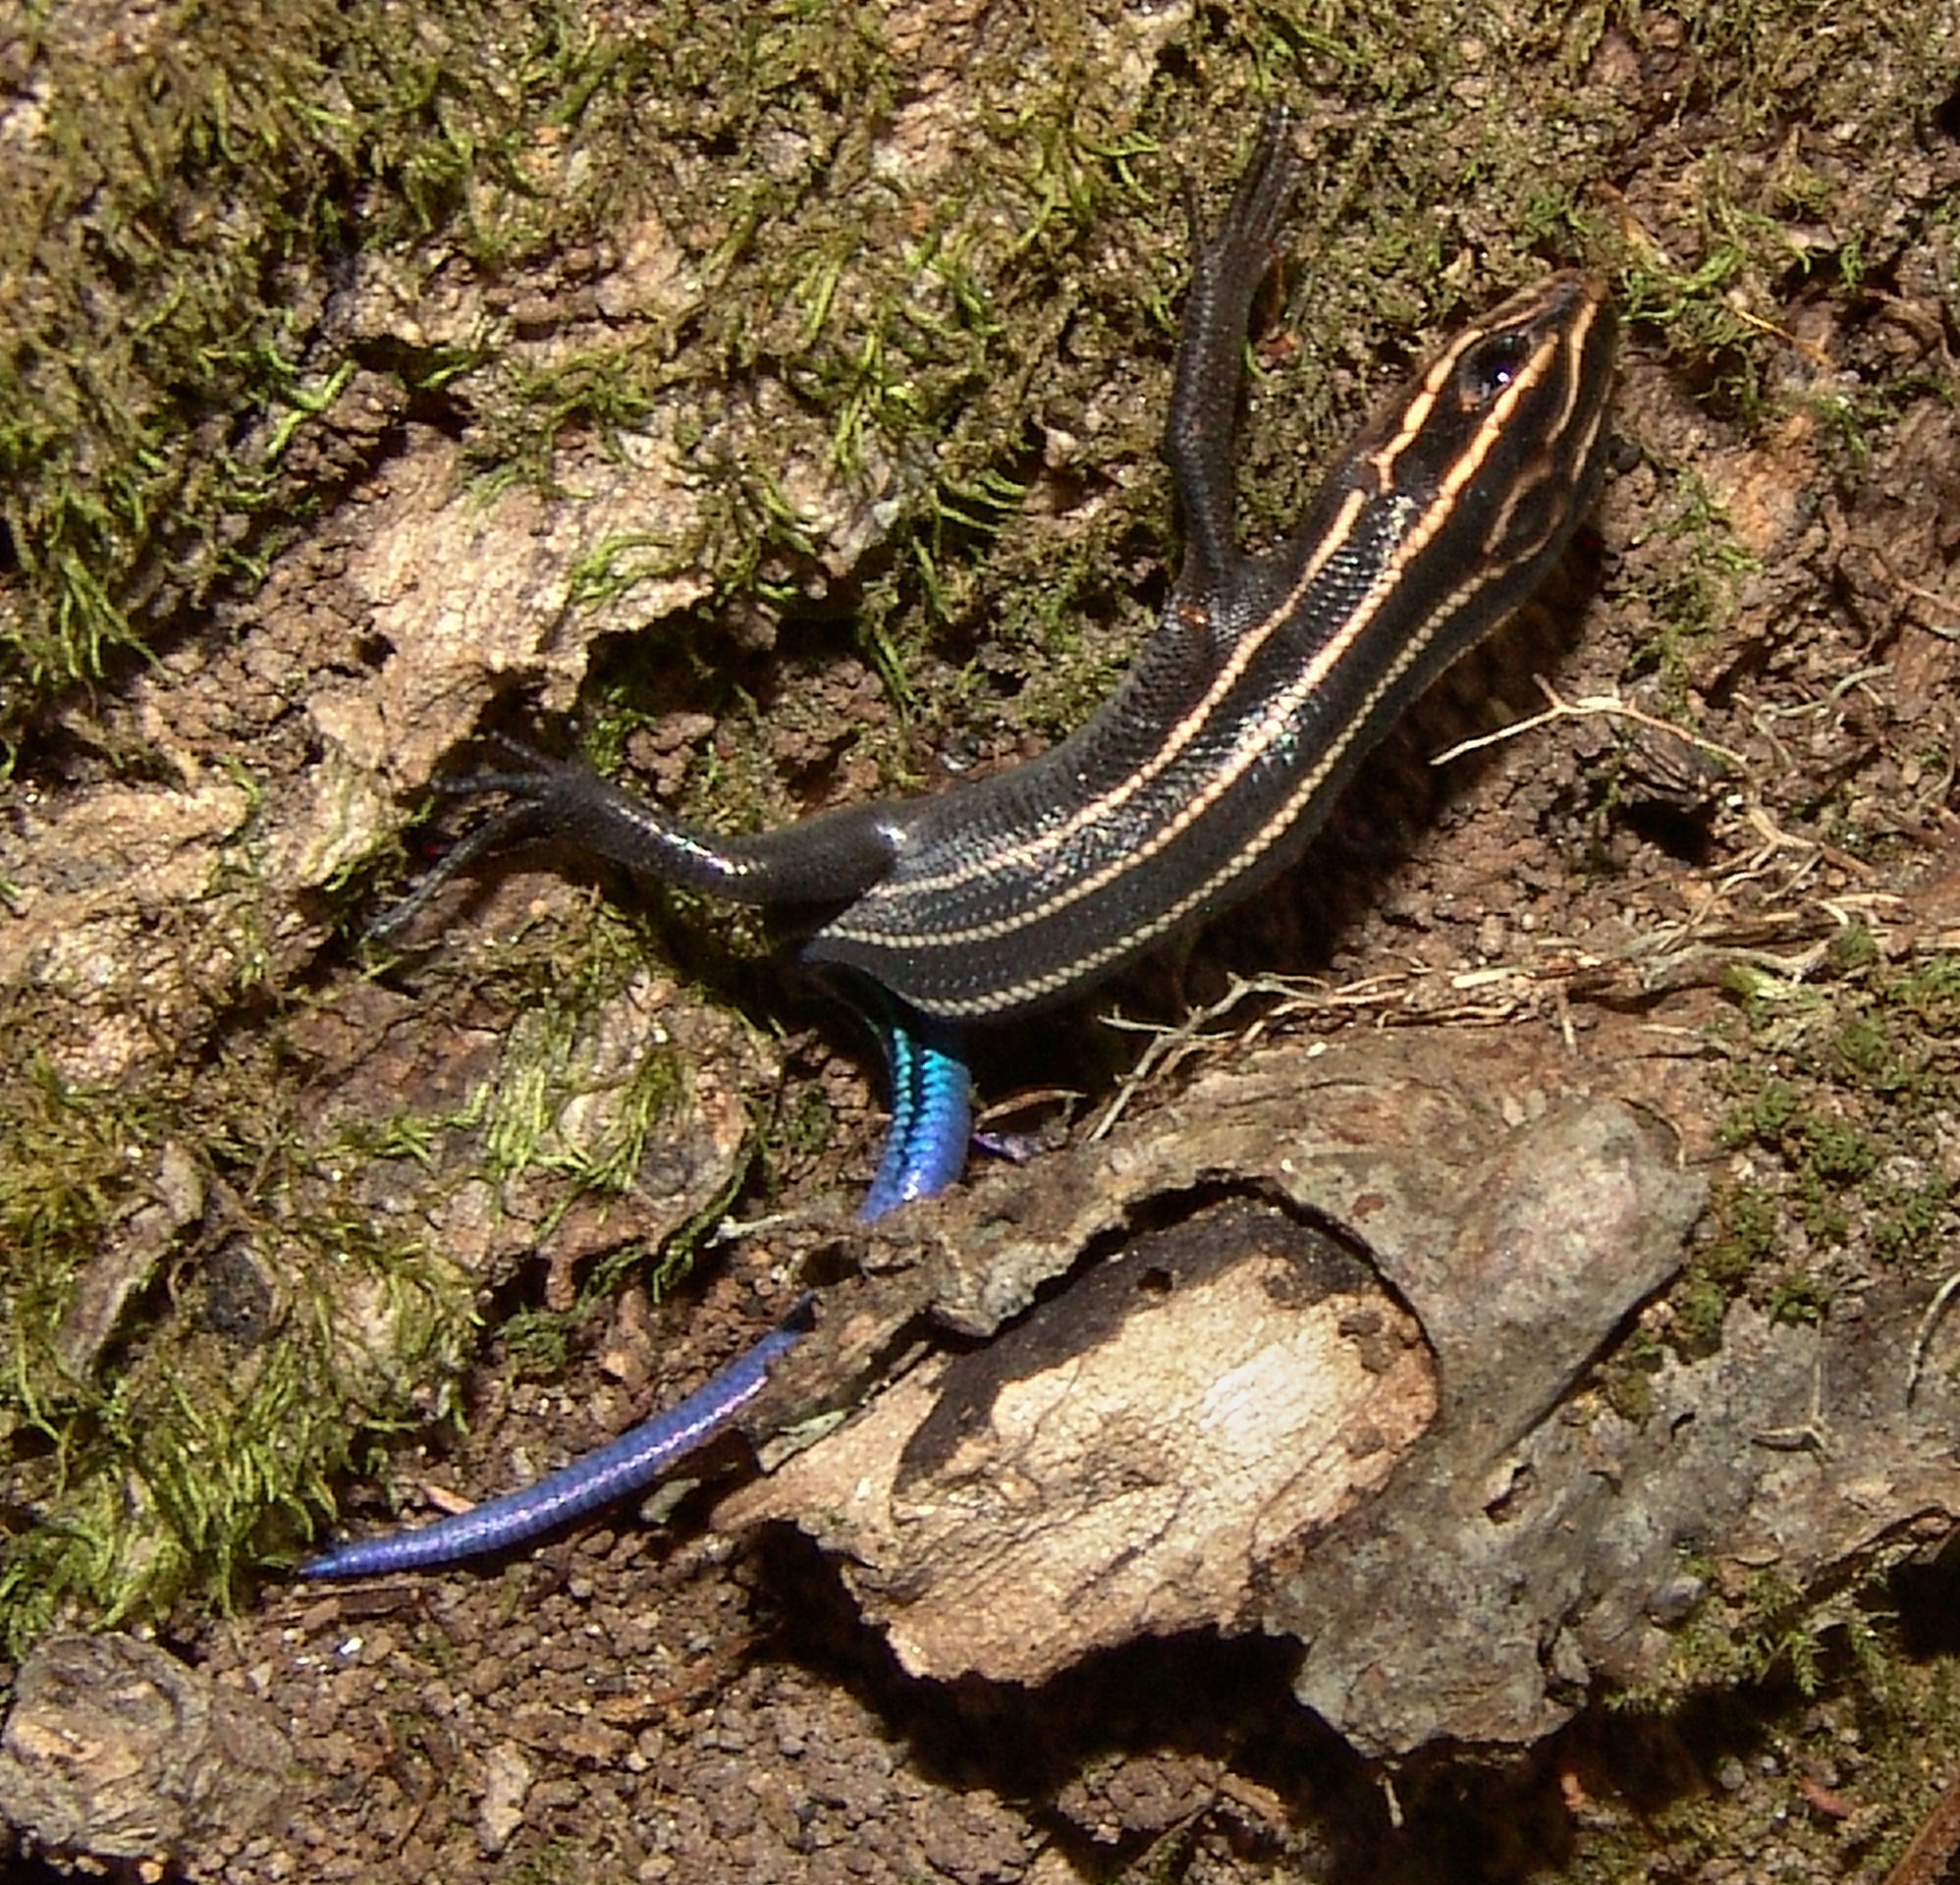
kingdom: Animalia
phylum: Chordata
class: Squamata
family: Scincidae
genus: Plestiodon
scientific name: Plestiodon
